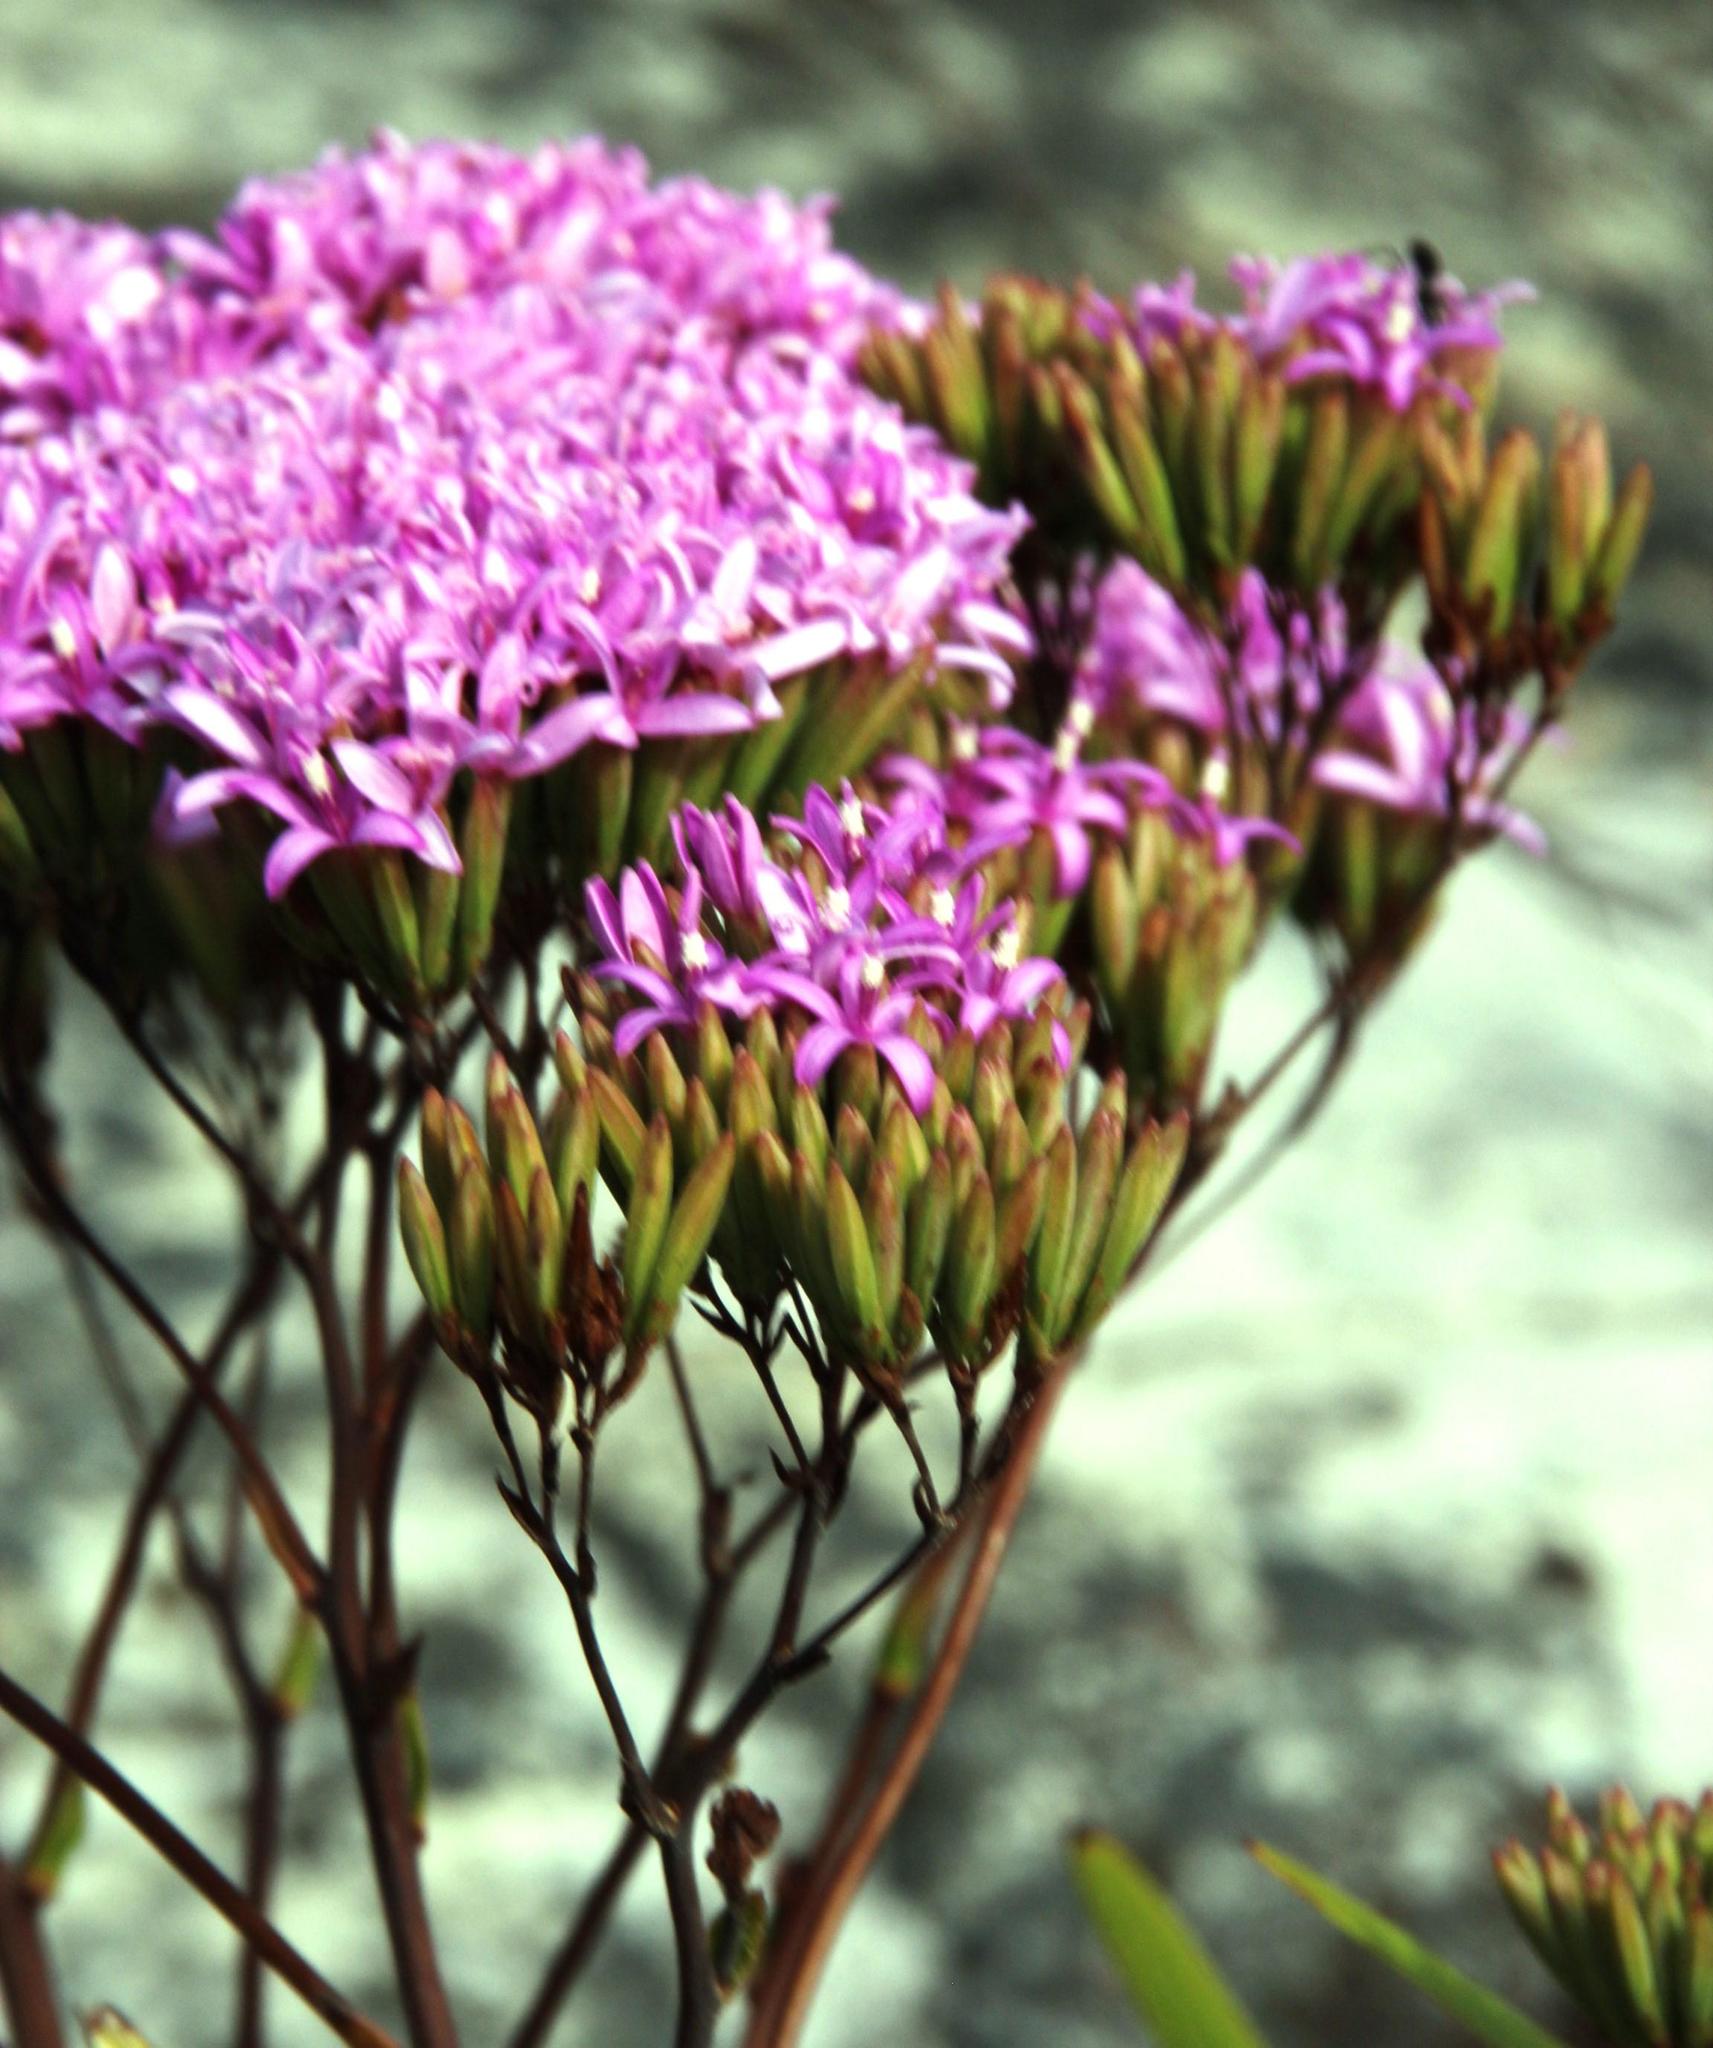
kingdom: Plantae
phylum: Tracheophyta
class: Magnoliopsida
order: Asterales
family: Asteraceae
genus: Corymbium
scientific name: Corymbium glabrum
